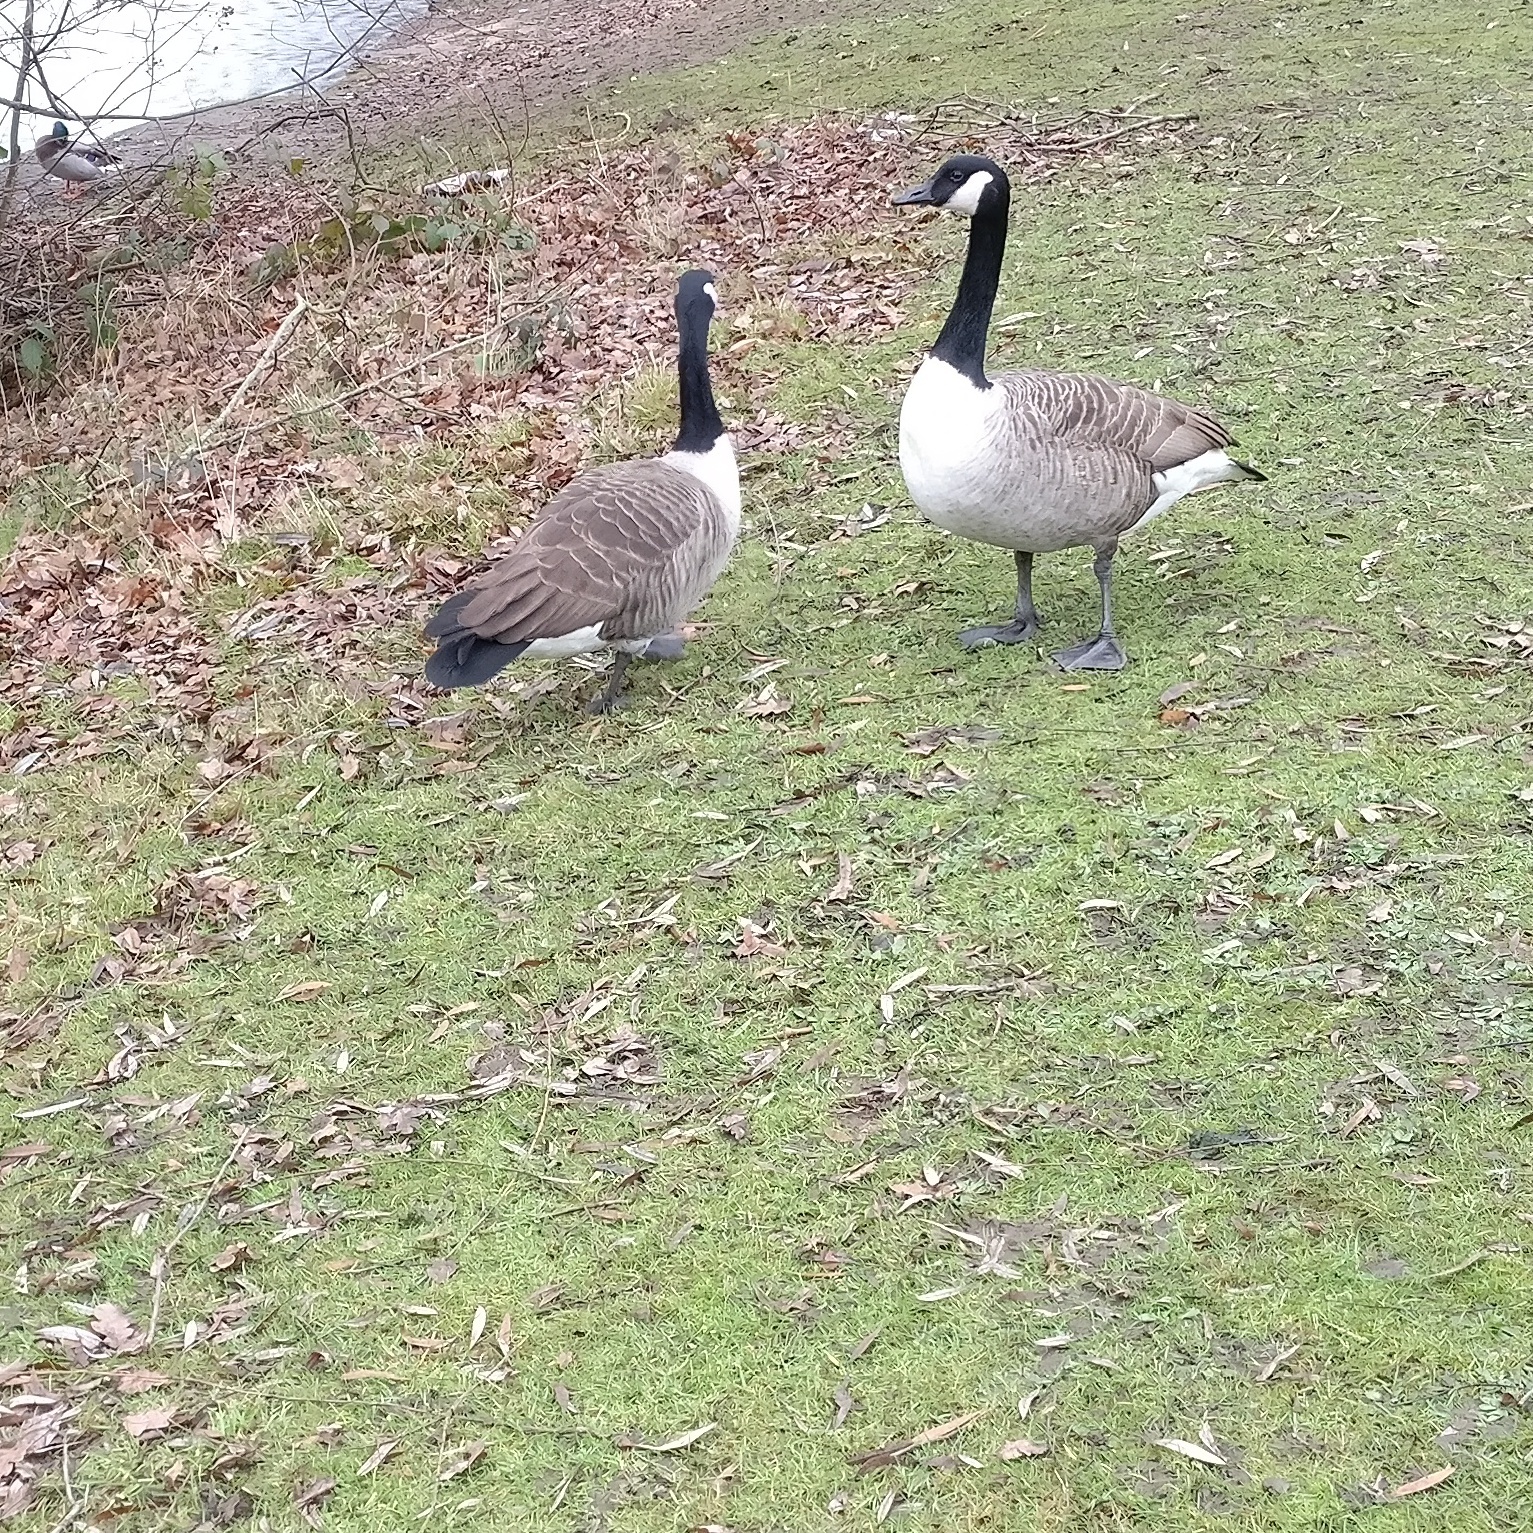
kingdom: Animalia
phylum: Chordata
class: Aves
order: Anseriformes
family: Anatidae
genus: Branta
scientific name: Branta canadensis
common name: Canada goose
